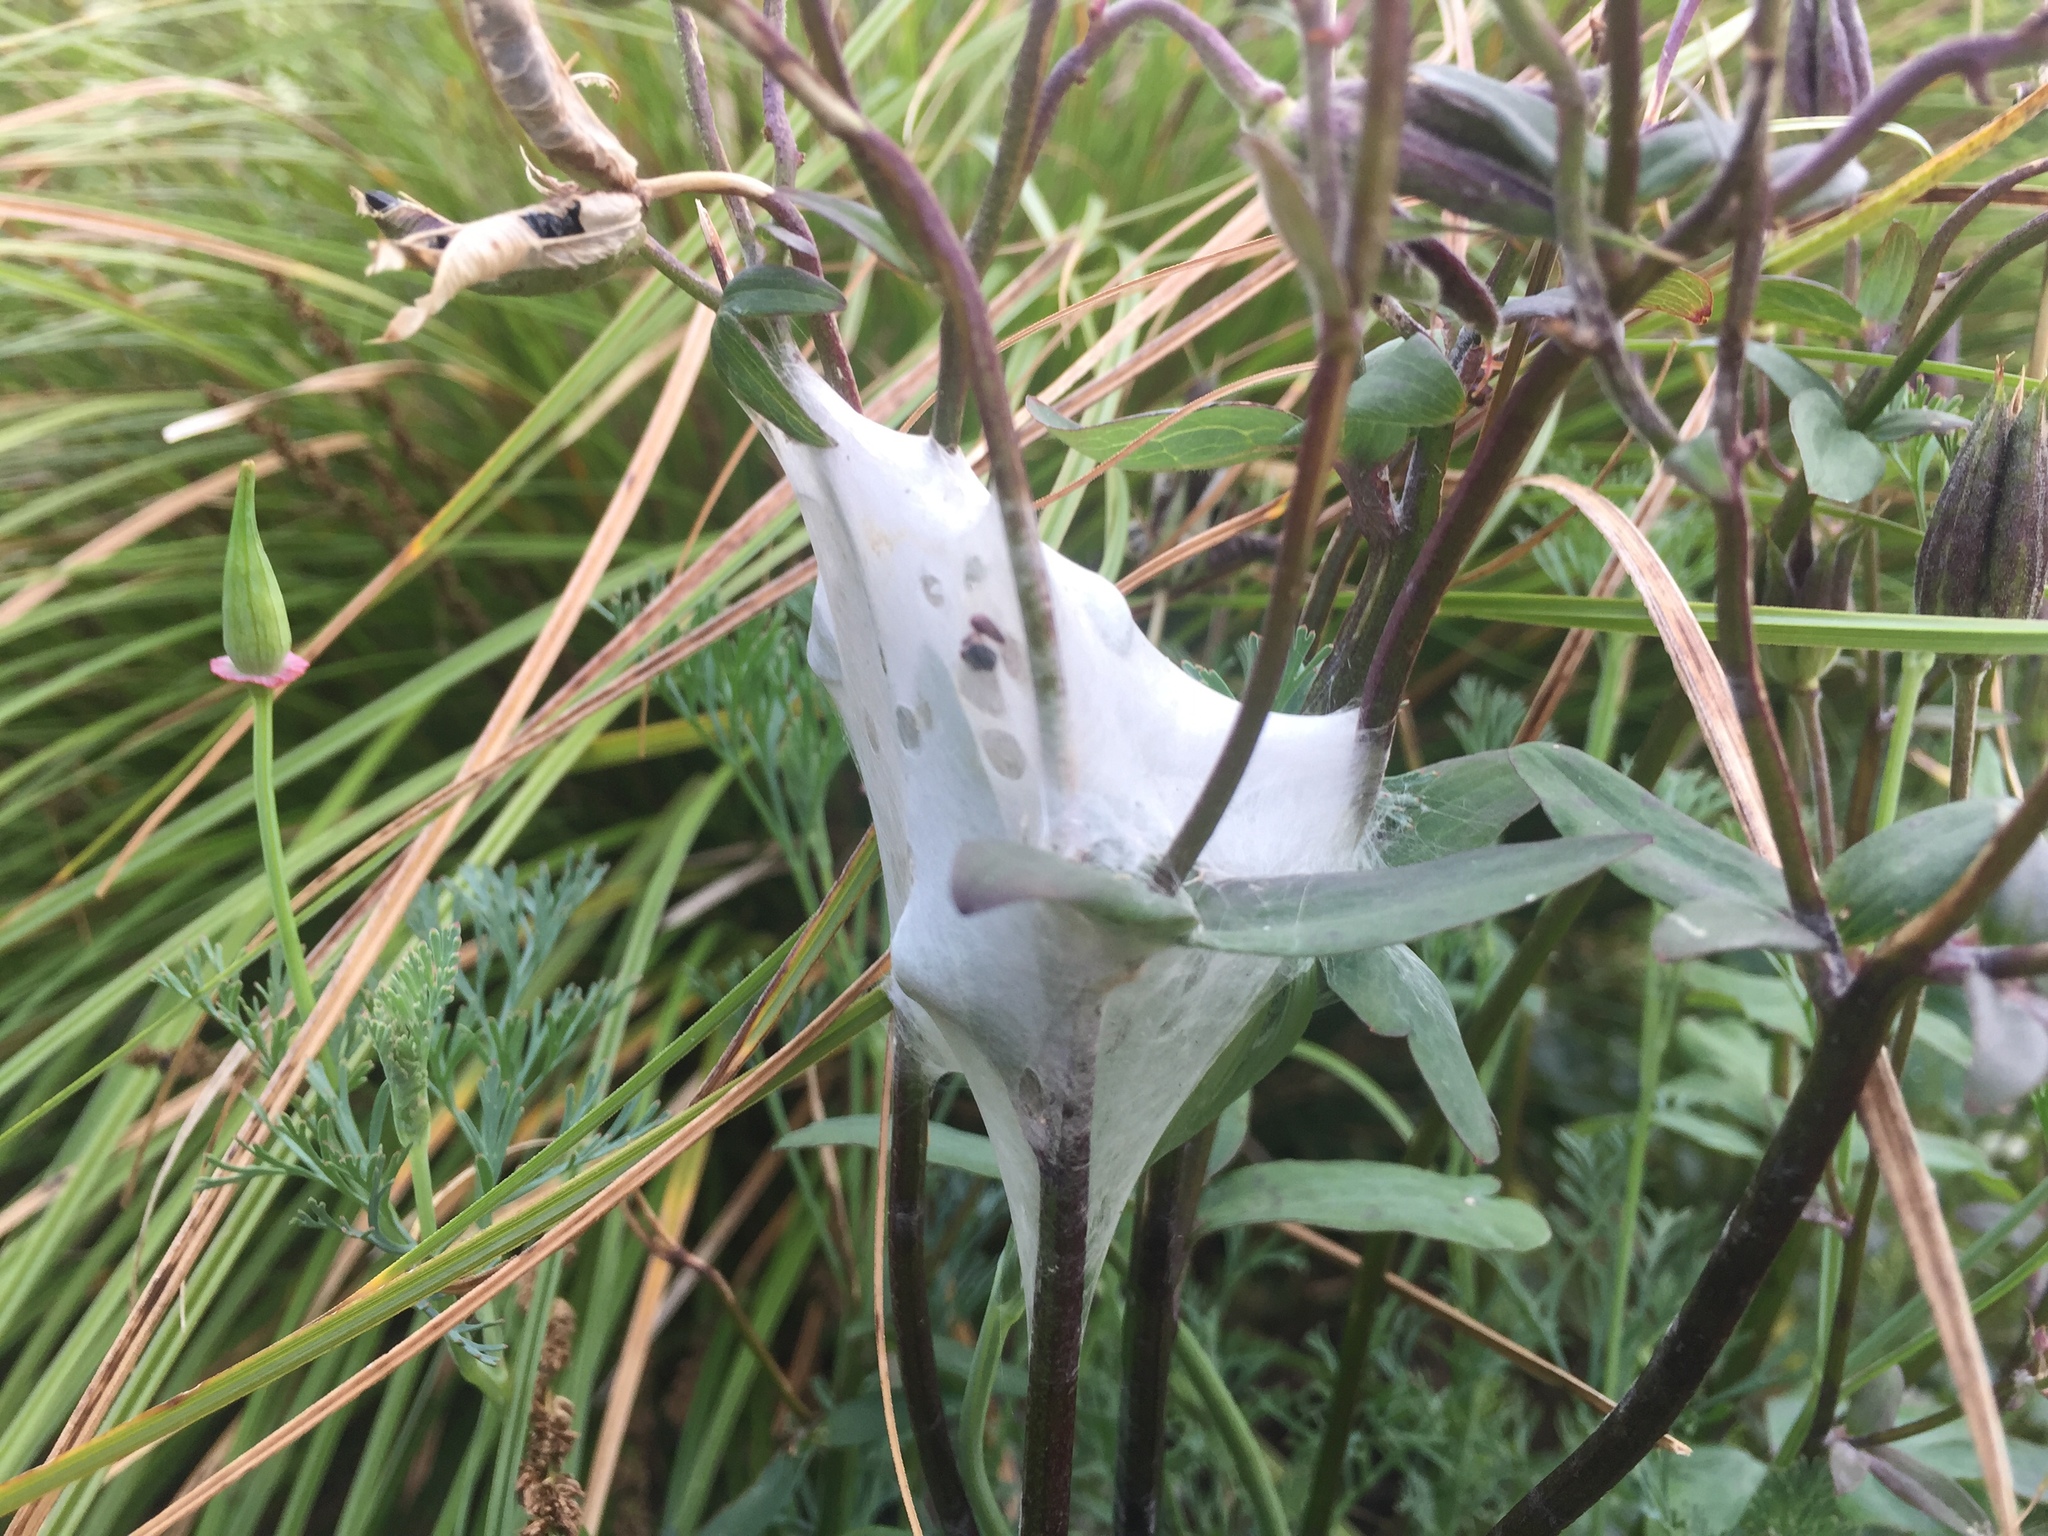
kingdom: Animalia
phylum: Arthropoda
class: Arachnida
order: Araneae
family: Pisauridae
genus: Dolomedes
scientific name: Dolomedes minor
